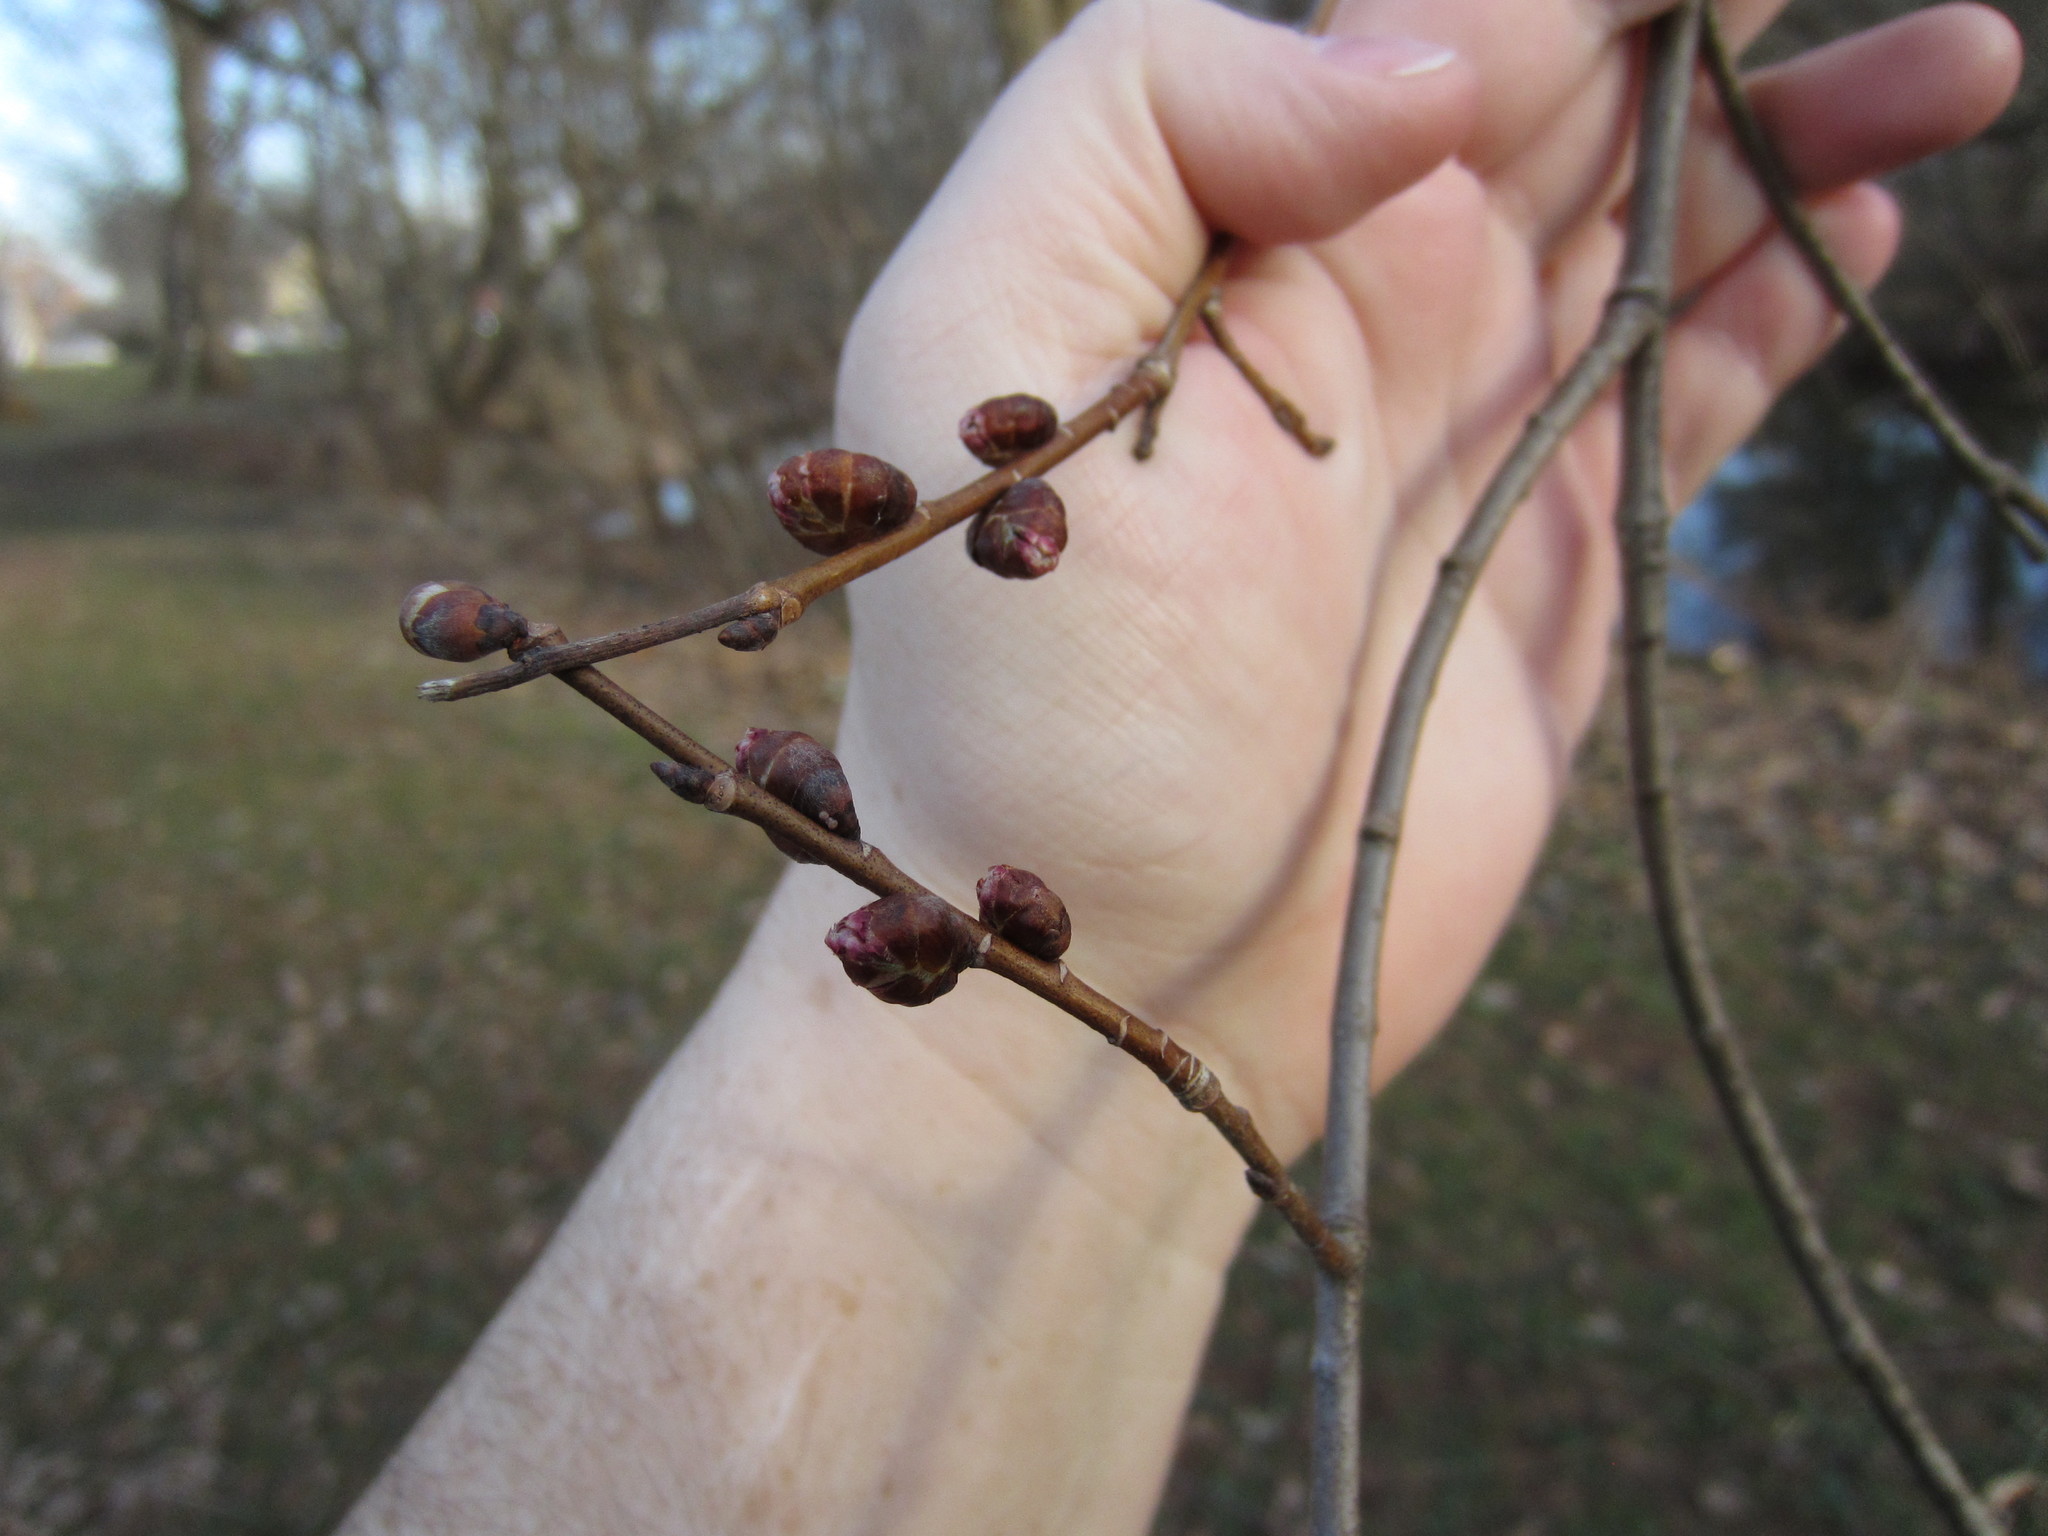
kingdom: Plantae
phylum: Tracheophyta
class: Magnoliopsida
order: Rosales
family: Ulmaceae
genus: Ulmus
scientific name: Ulmus americana
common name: American elm
